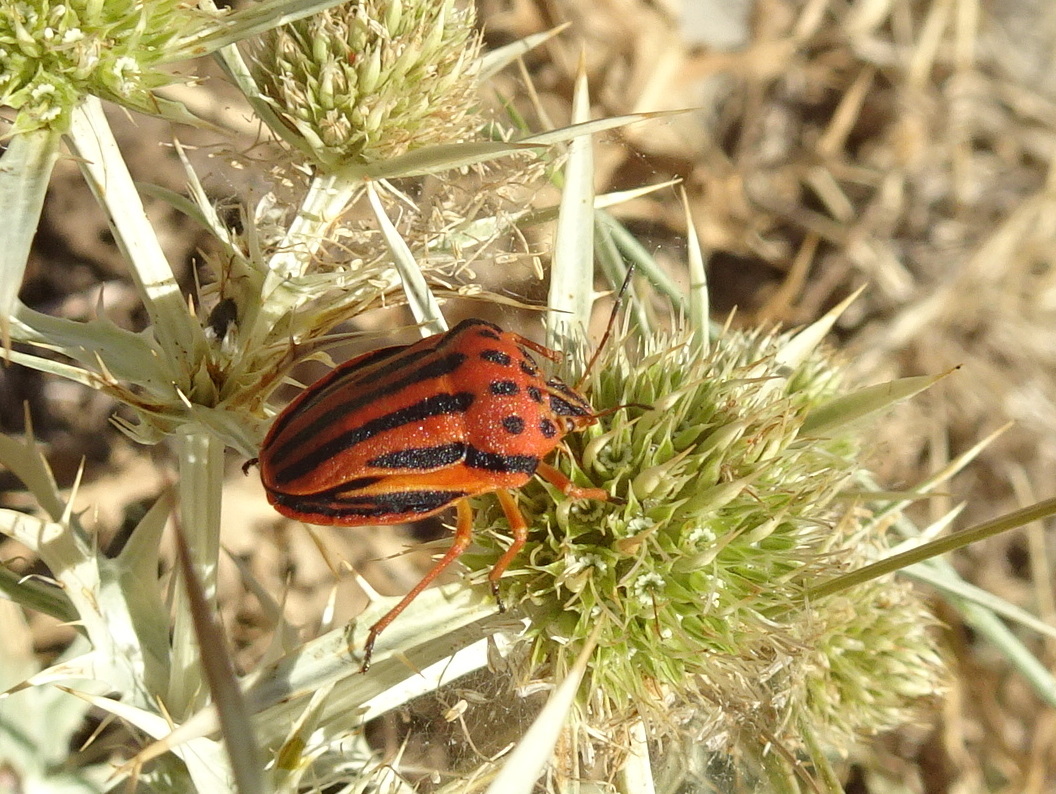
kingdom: Animalia
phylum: Arthropoda
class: Insecta
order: Hemiptera
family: Pentatomidae
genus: Graphosoma
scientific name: Graphosoma semipunctatum
